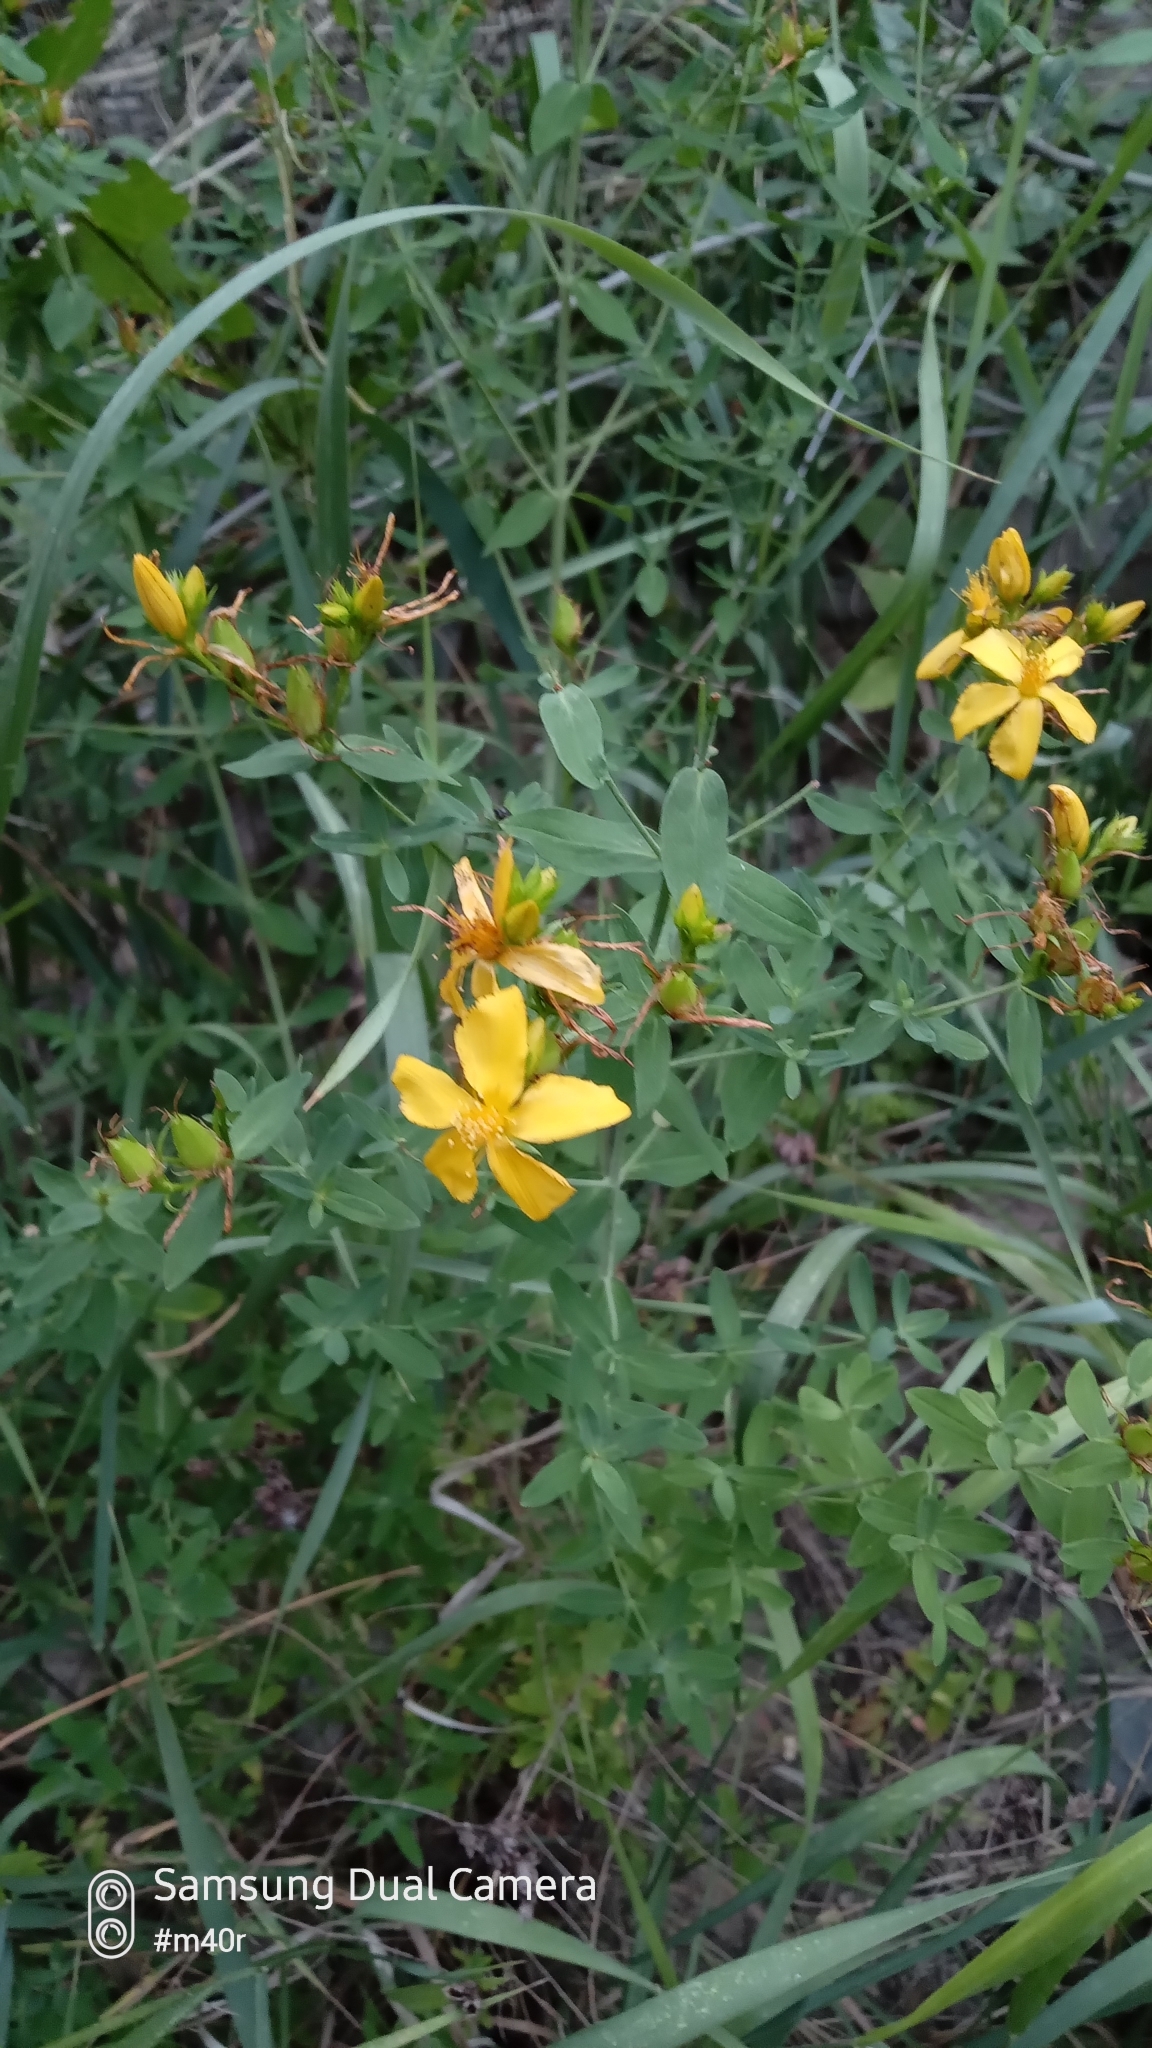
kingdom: Plantae
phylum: Tracheophyta
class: Magnoliopsida
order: Malpighiales
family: Hypericaceae
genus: Hypericum
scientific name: Hypericum perforatum
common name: Common st. johnswort
